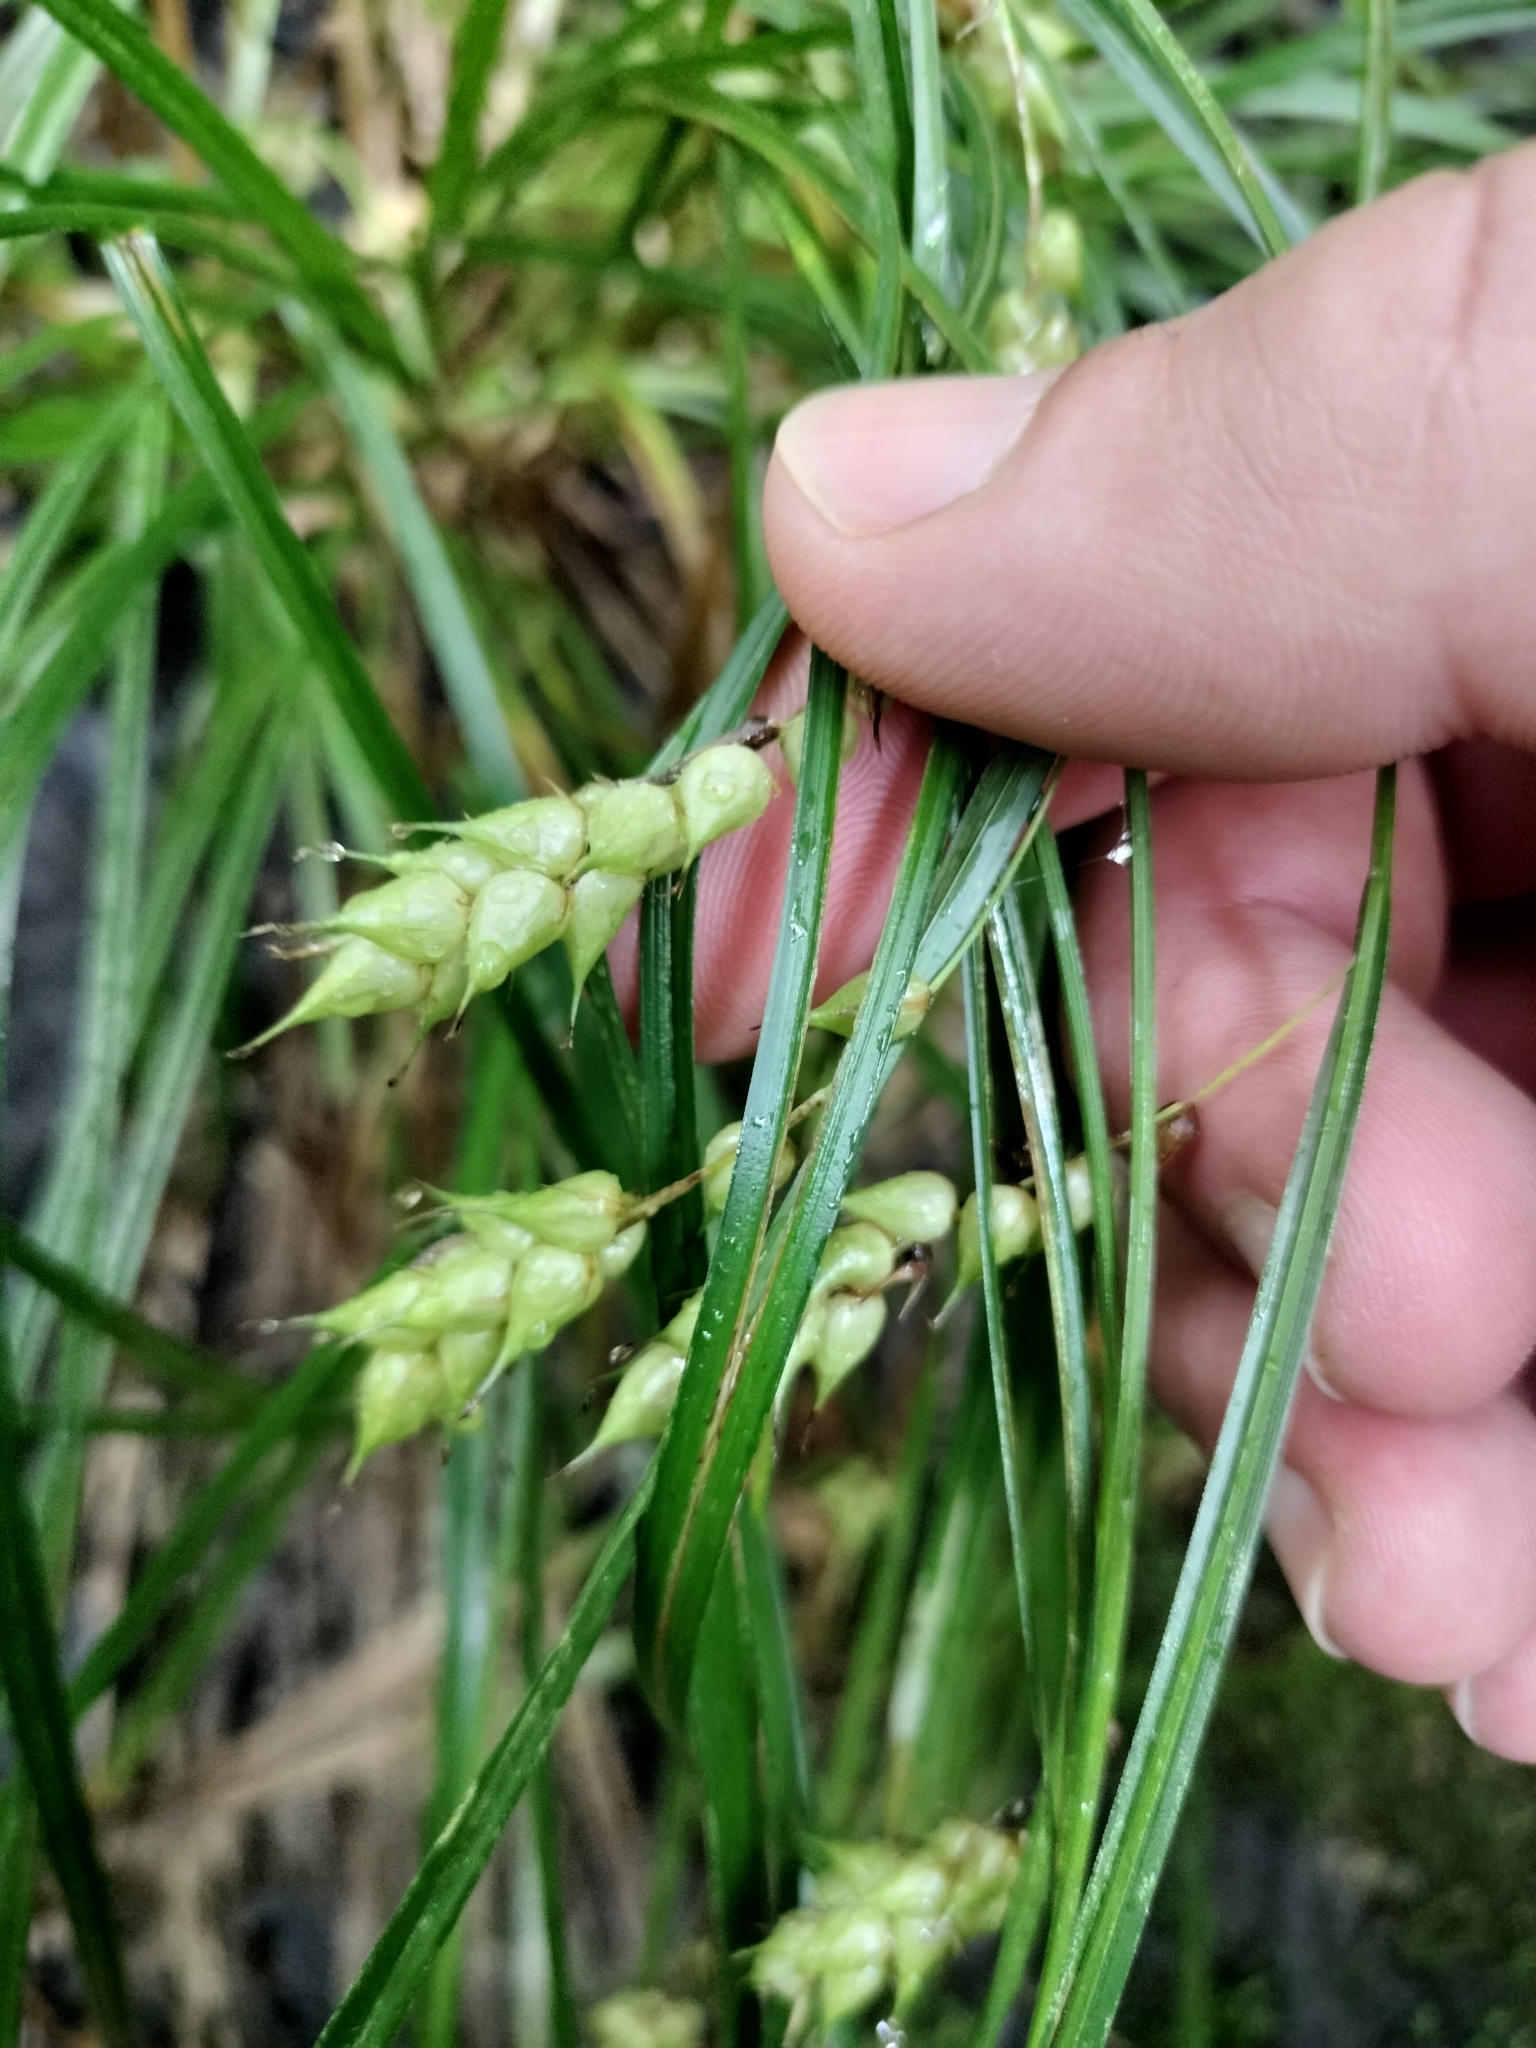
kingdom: Plantae
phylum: Tracheophyta
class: Liliopsida
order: Poales
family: Cyperaceae
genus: Carex
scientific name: Carex tuckermanii
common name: Tuckerman's sedge
